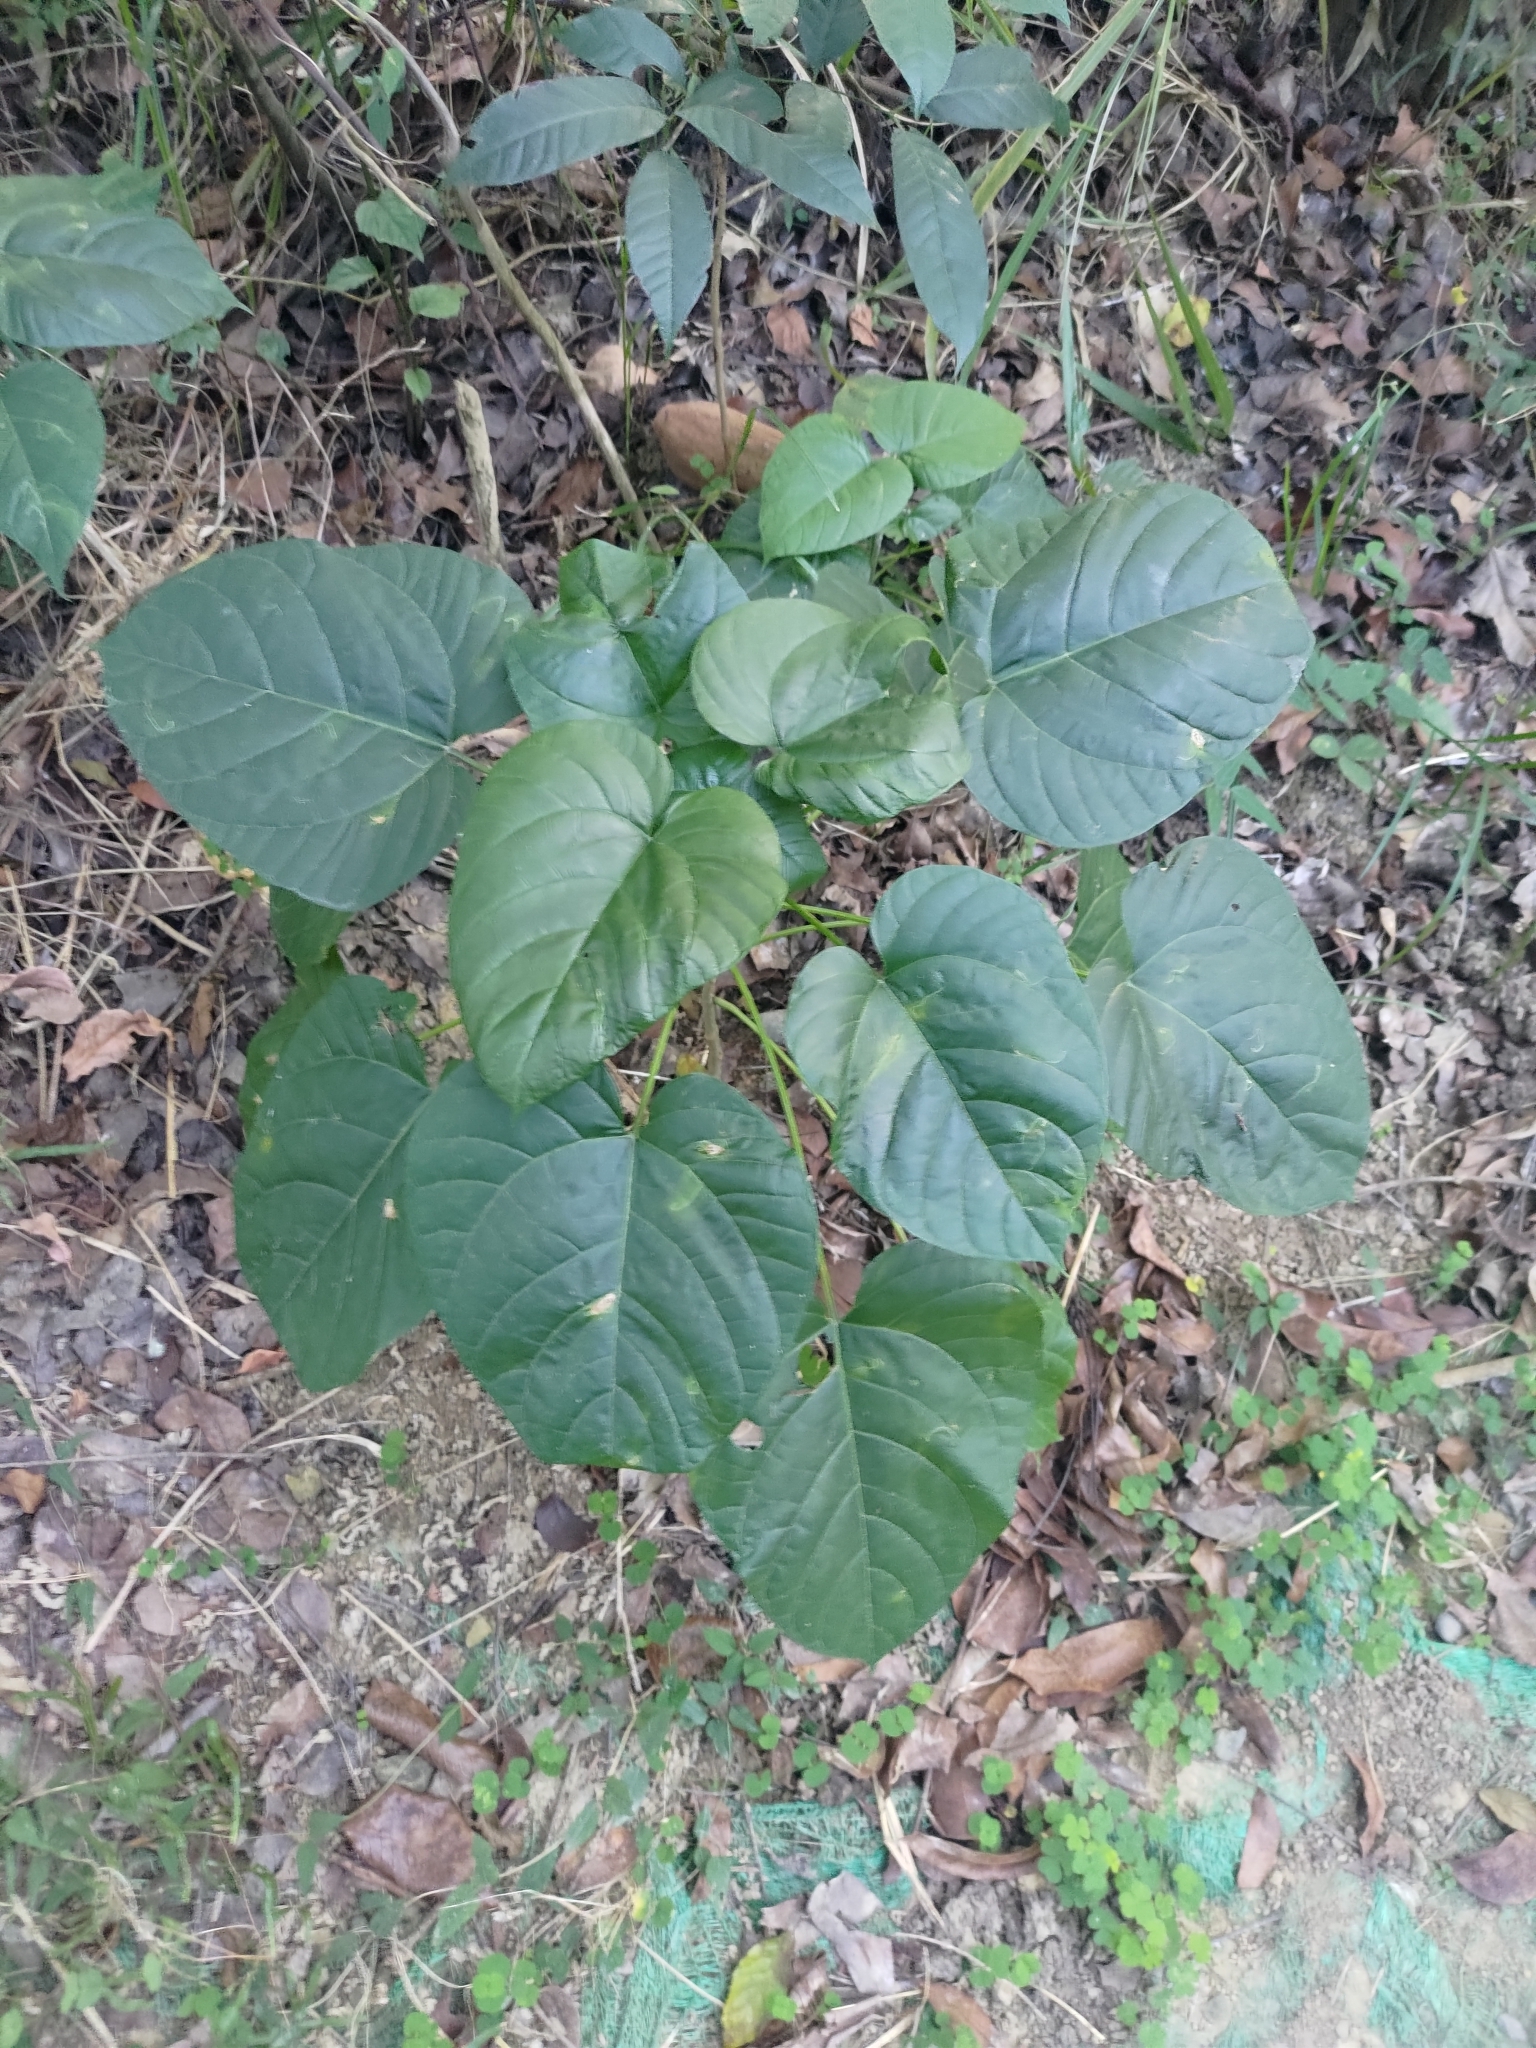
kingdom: Plantae
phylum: Tracheophyta
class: Magnoliopsida
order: Lamiales
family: Lamiaceae
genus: Clerodendrum
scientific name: Clerodendrum japonicum
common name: Japanese glorybower
